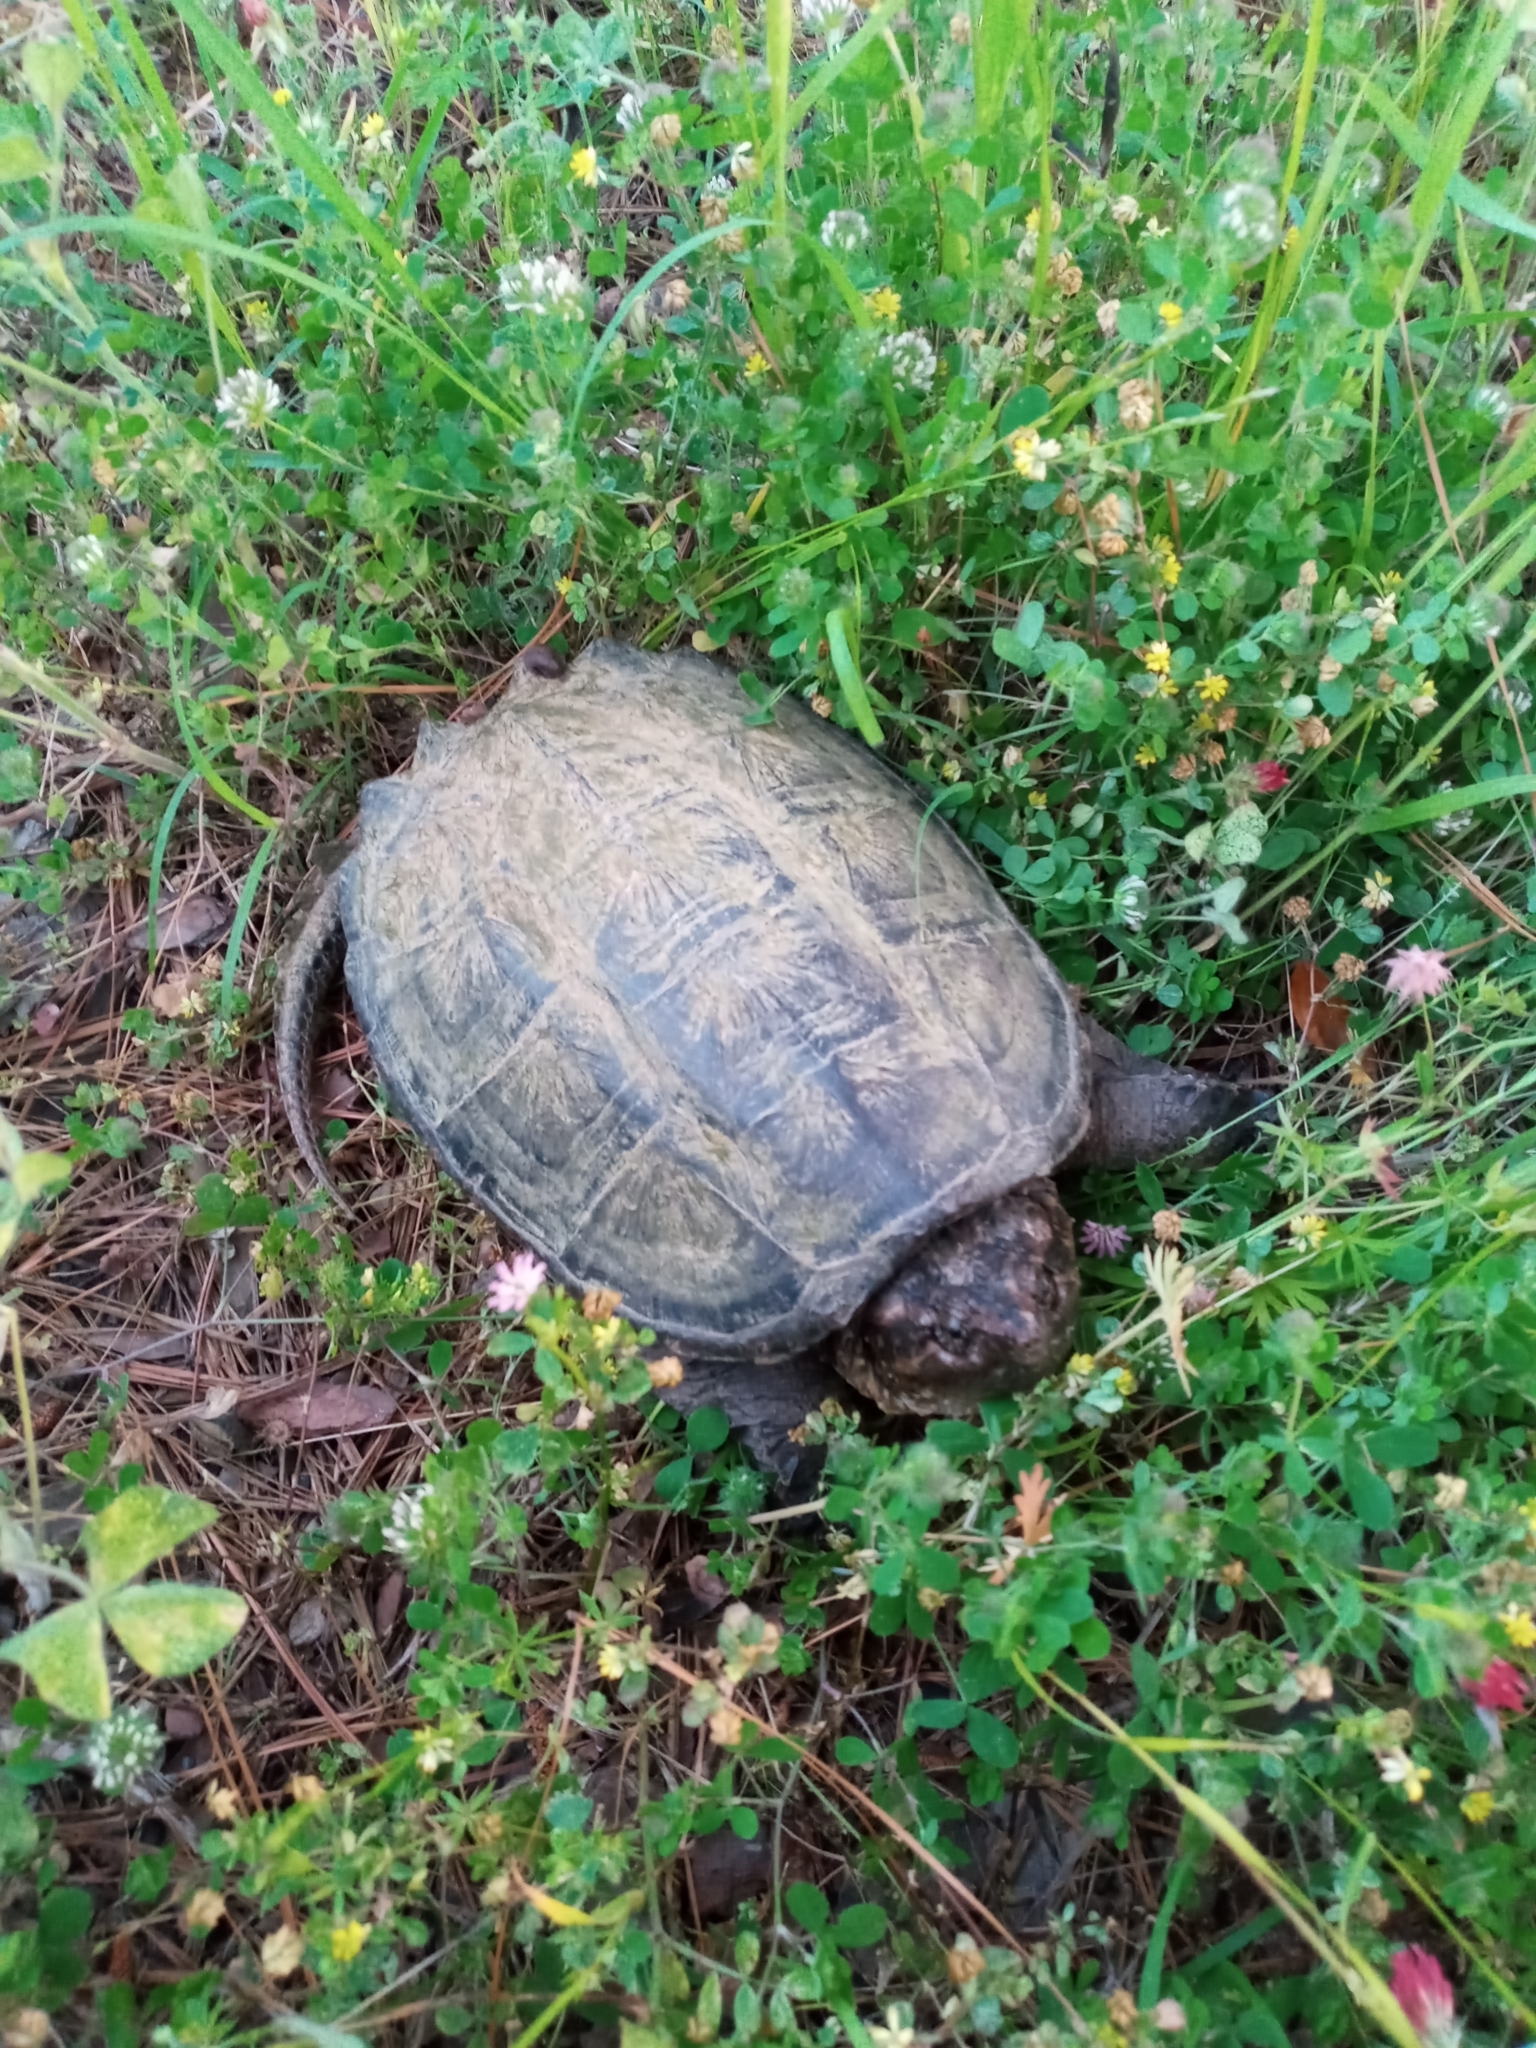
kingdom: Animalia
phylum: Chordata
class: Testudines
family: Chelydridae
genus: Chelydra
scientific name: Chelydra serpentina
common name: Common snapping turtle
